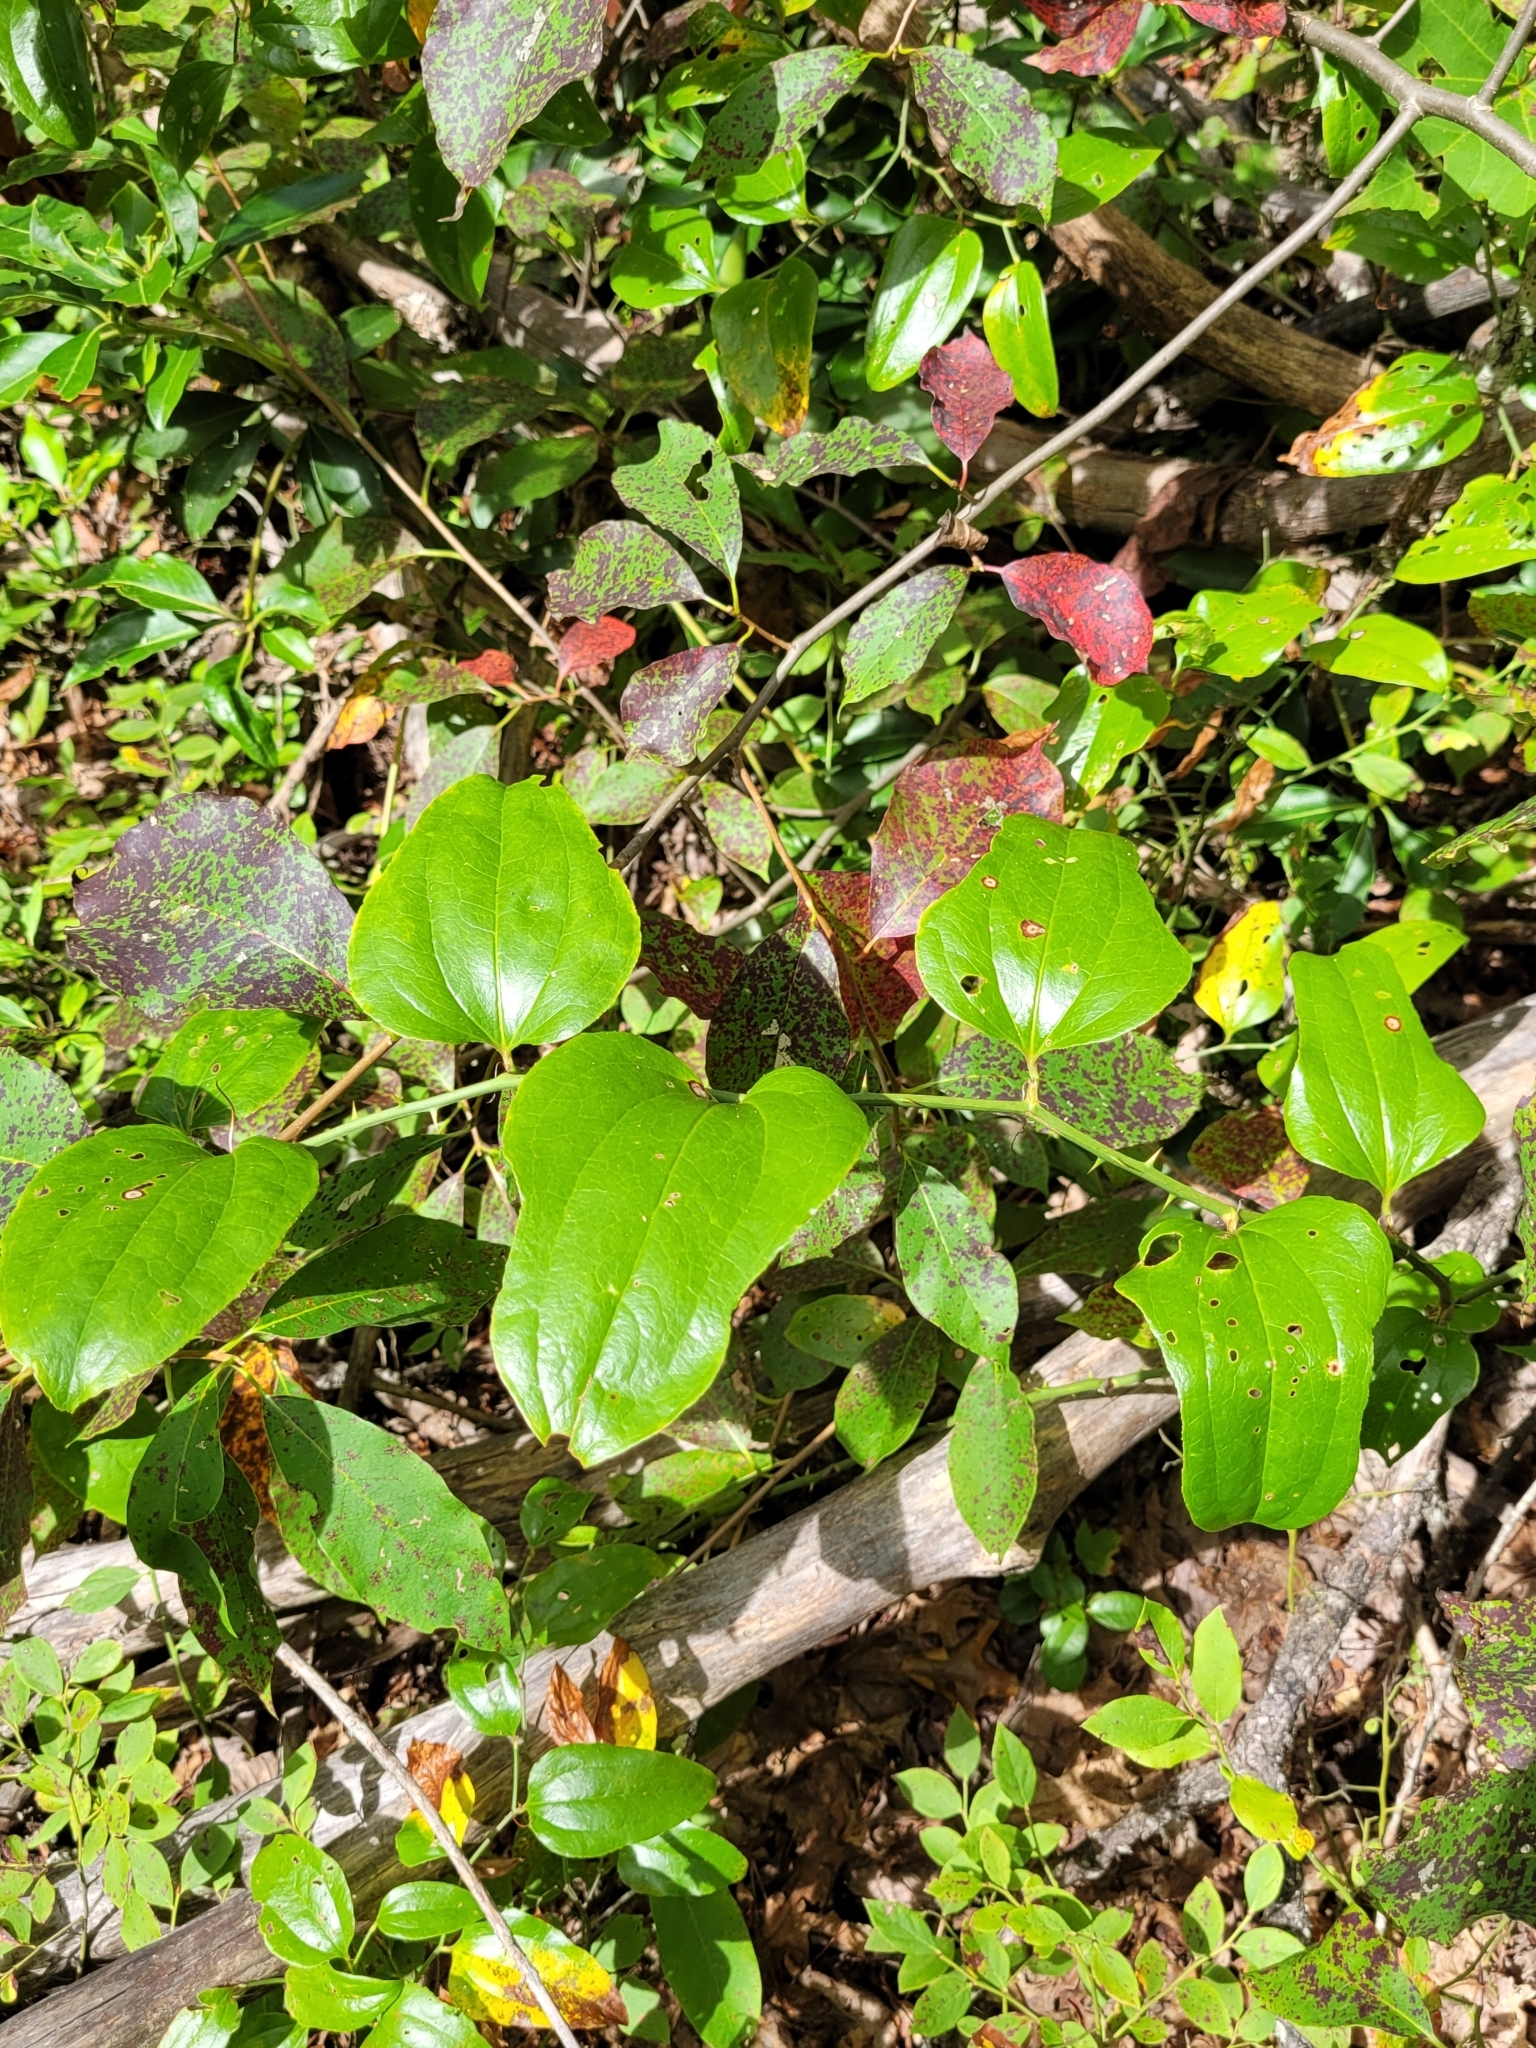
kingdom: Plantae
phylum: Tracheophyta
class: Liliopsida
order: Liliales
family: Smilacaceae
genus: Smilax
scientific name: Smilax bona-nox
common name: Catbrier
